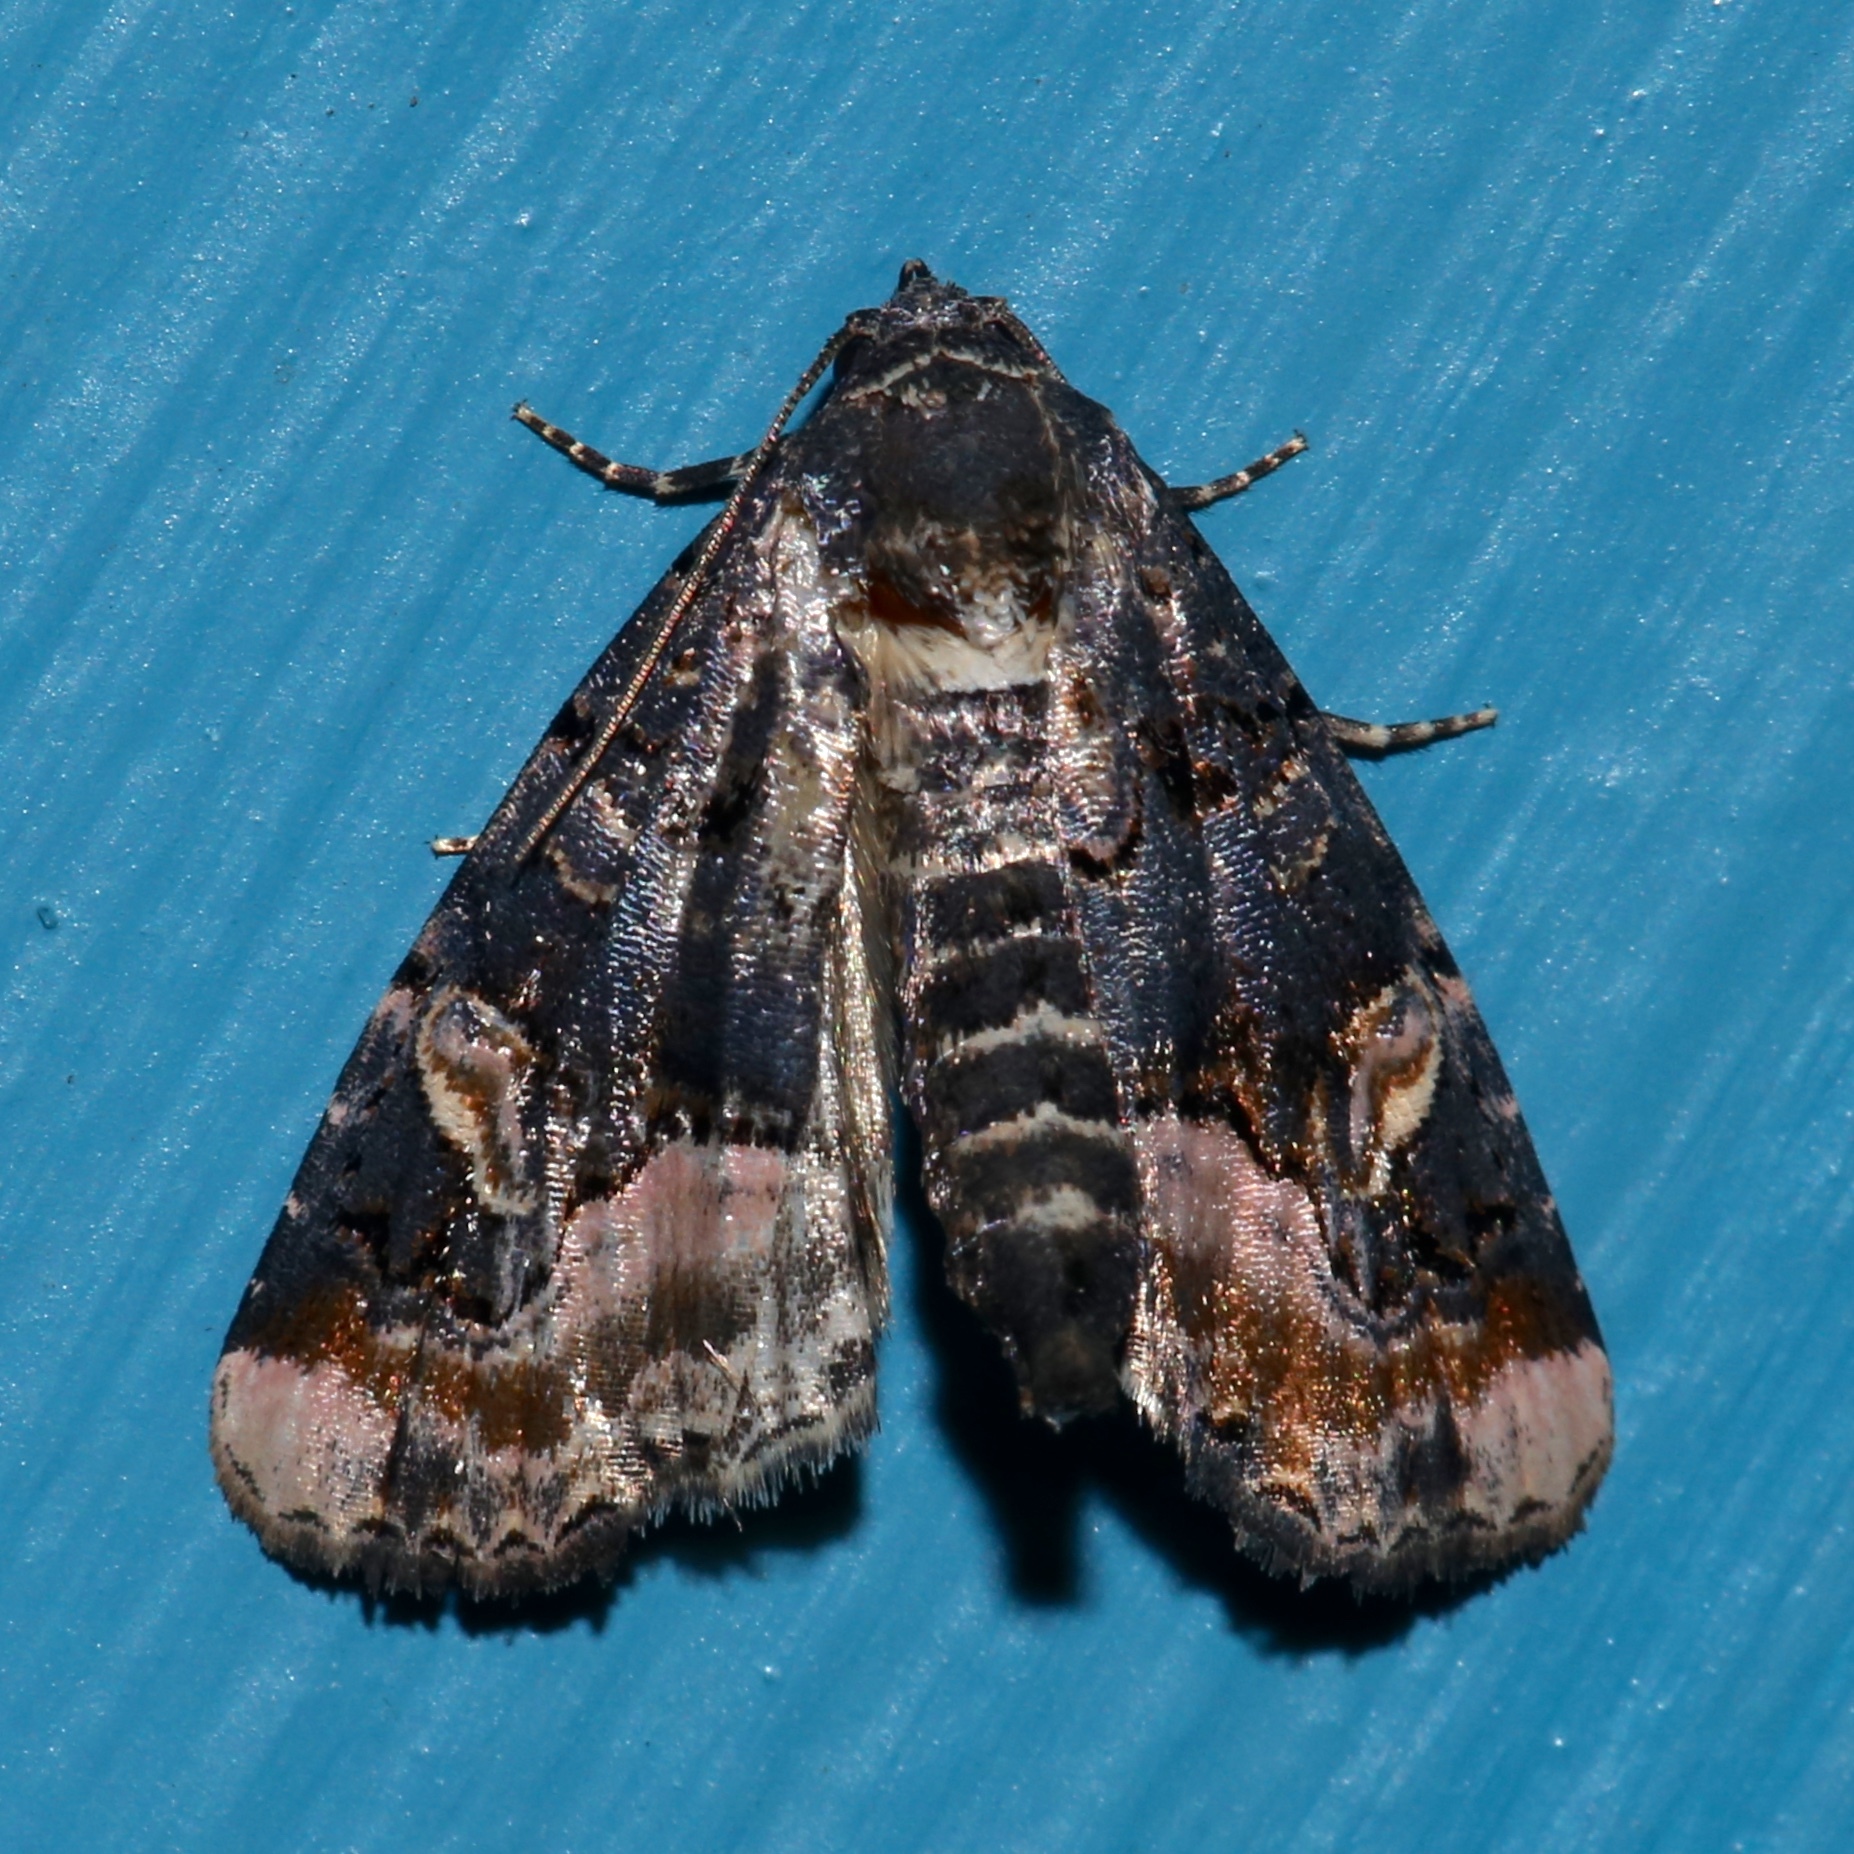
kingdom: Animalia
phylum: Arthropoda
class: Insecta
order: Lepidoptera
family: Noctuidae
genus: Homophoberia
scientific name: Homophoberia apicosa
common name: Black wedge-spot
